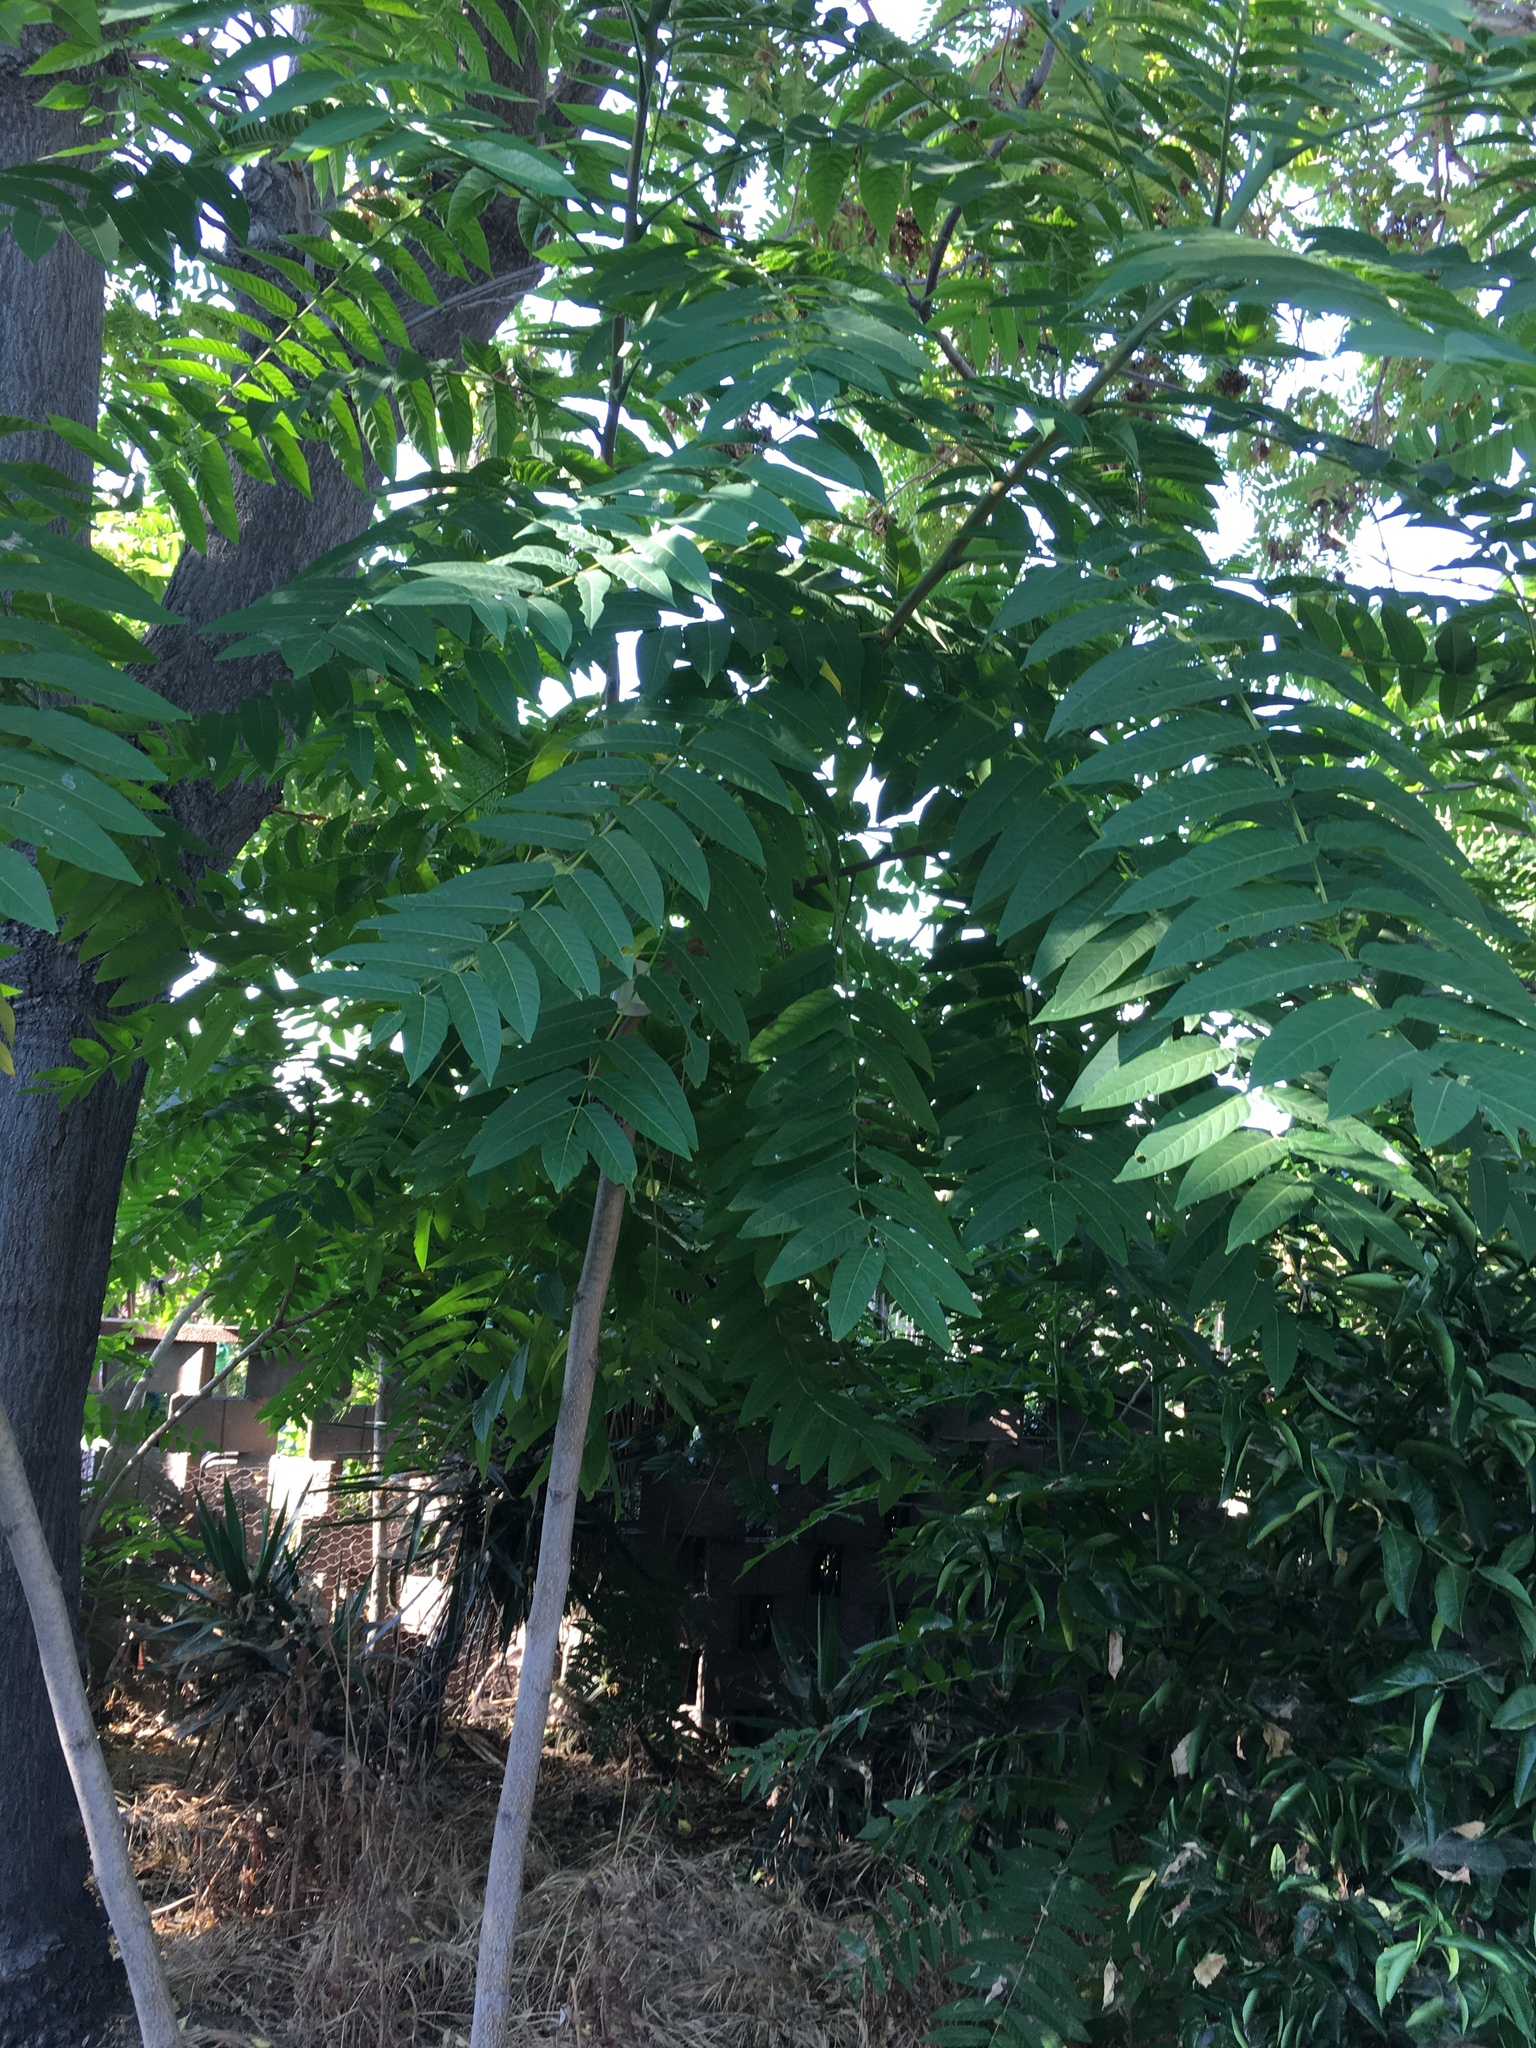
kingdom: Plantae
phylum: Tracheophyta
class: Magnoliopsida
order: Sapindales
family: Simaroubaceae
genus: Ailanthus
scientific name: Ailanthus altissima
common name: Tree-of-heaven
